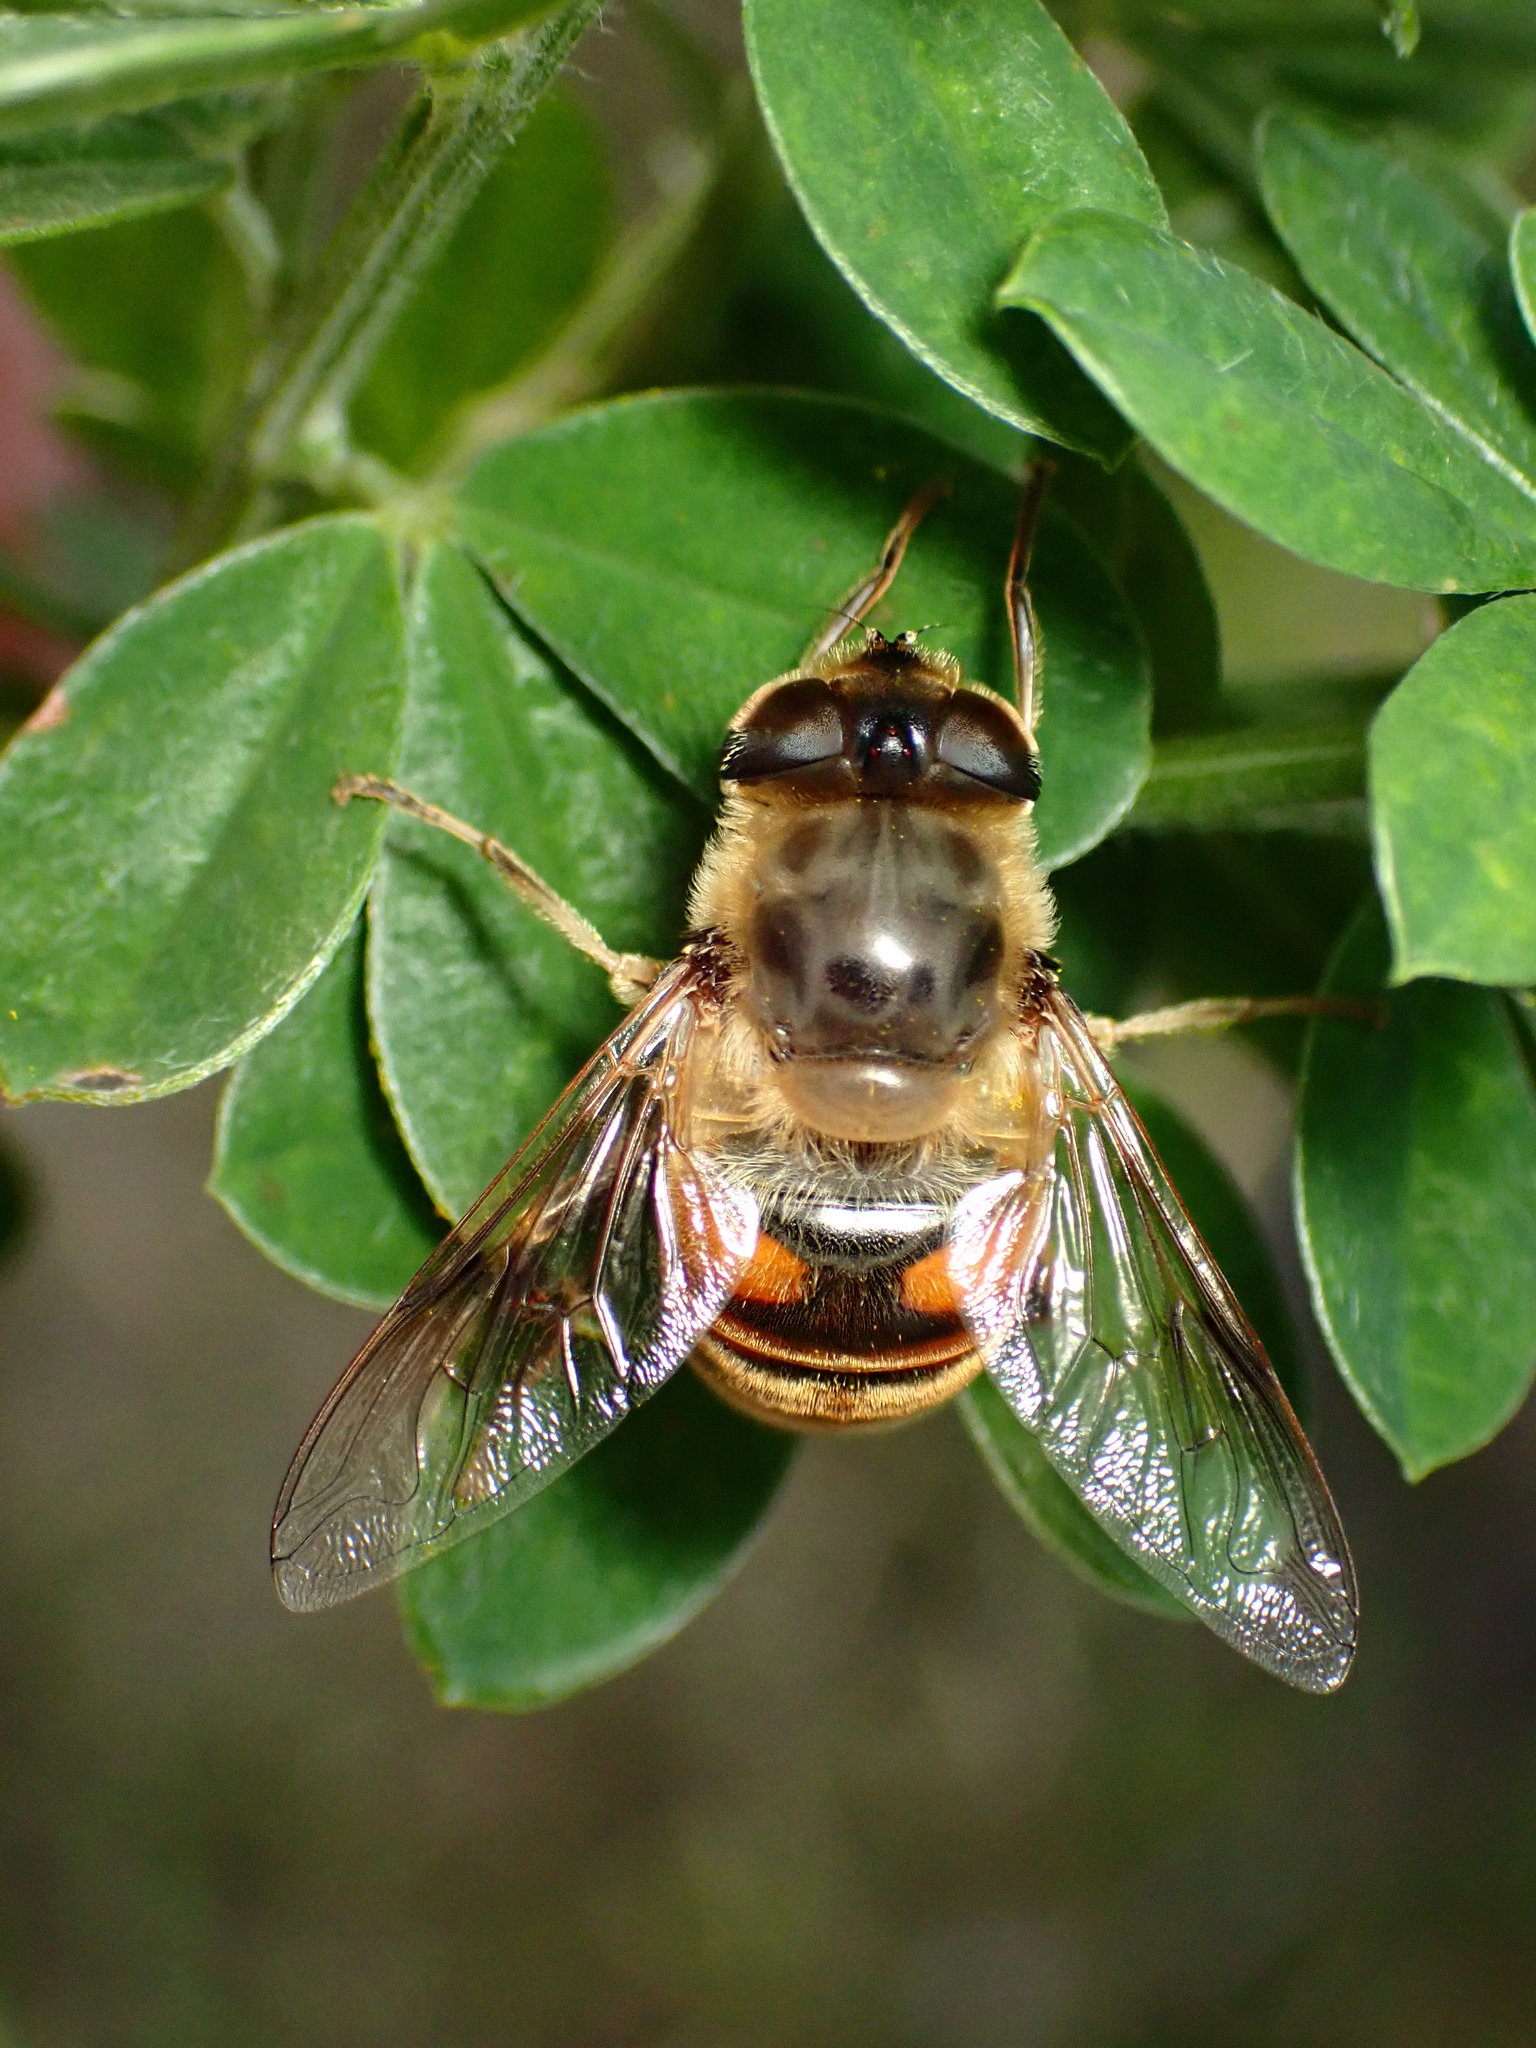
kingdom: Animalia
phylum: Arthropoda
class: Insecta
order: Diptera
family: Syrphidae
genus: Eristalis
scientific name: Eristalis tenax
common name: Drone fly
